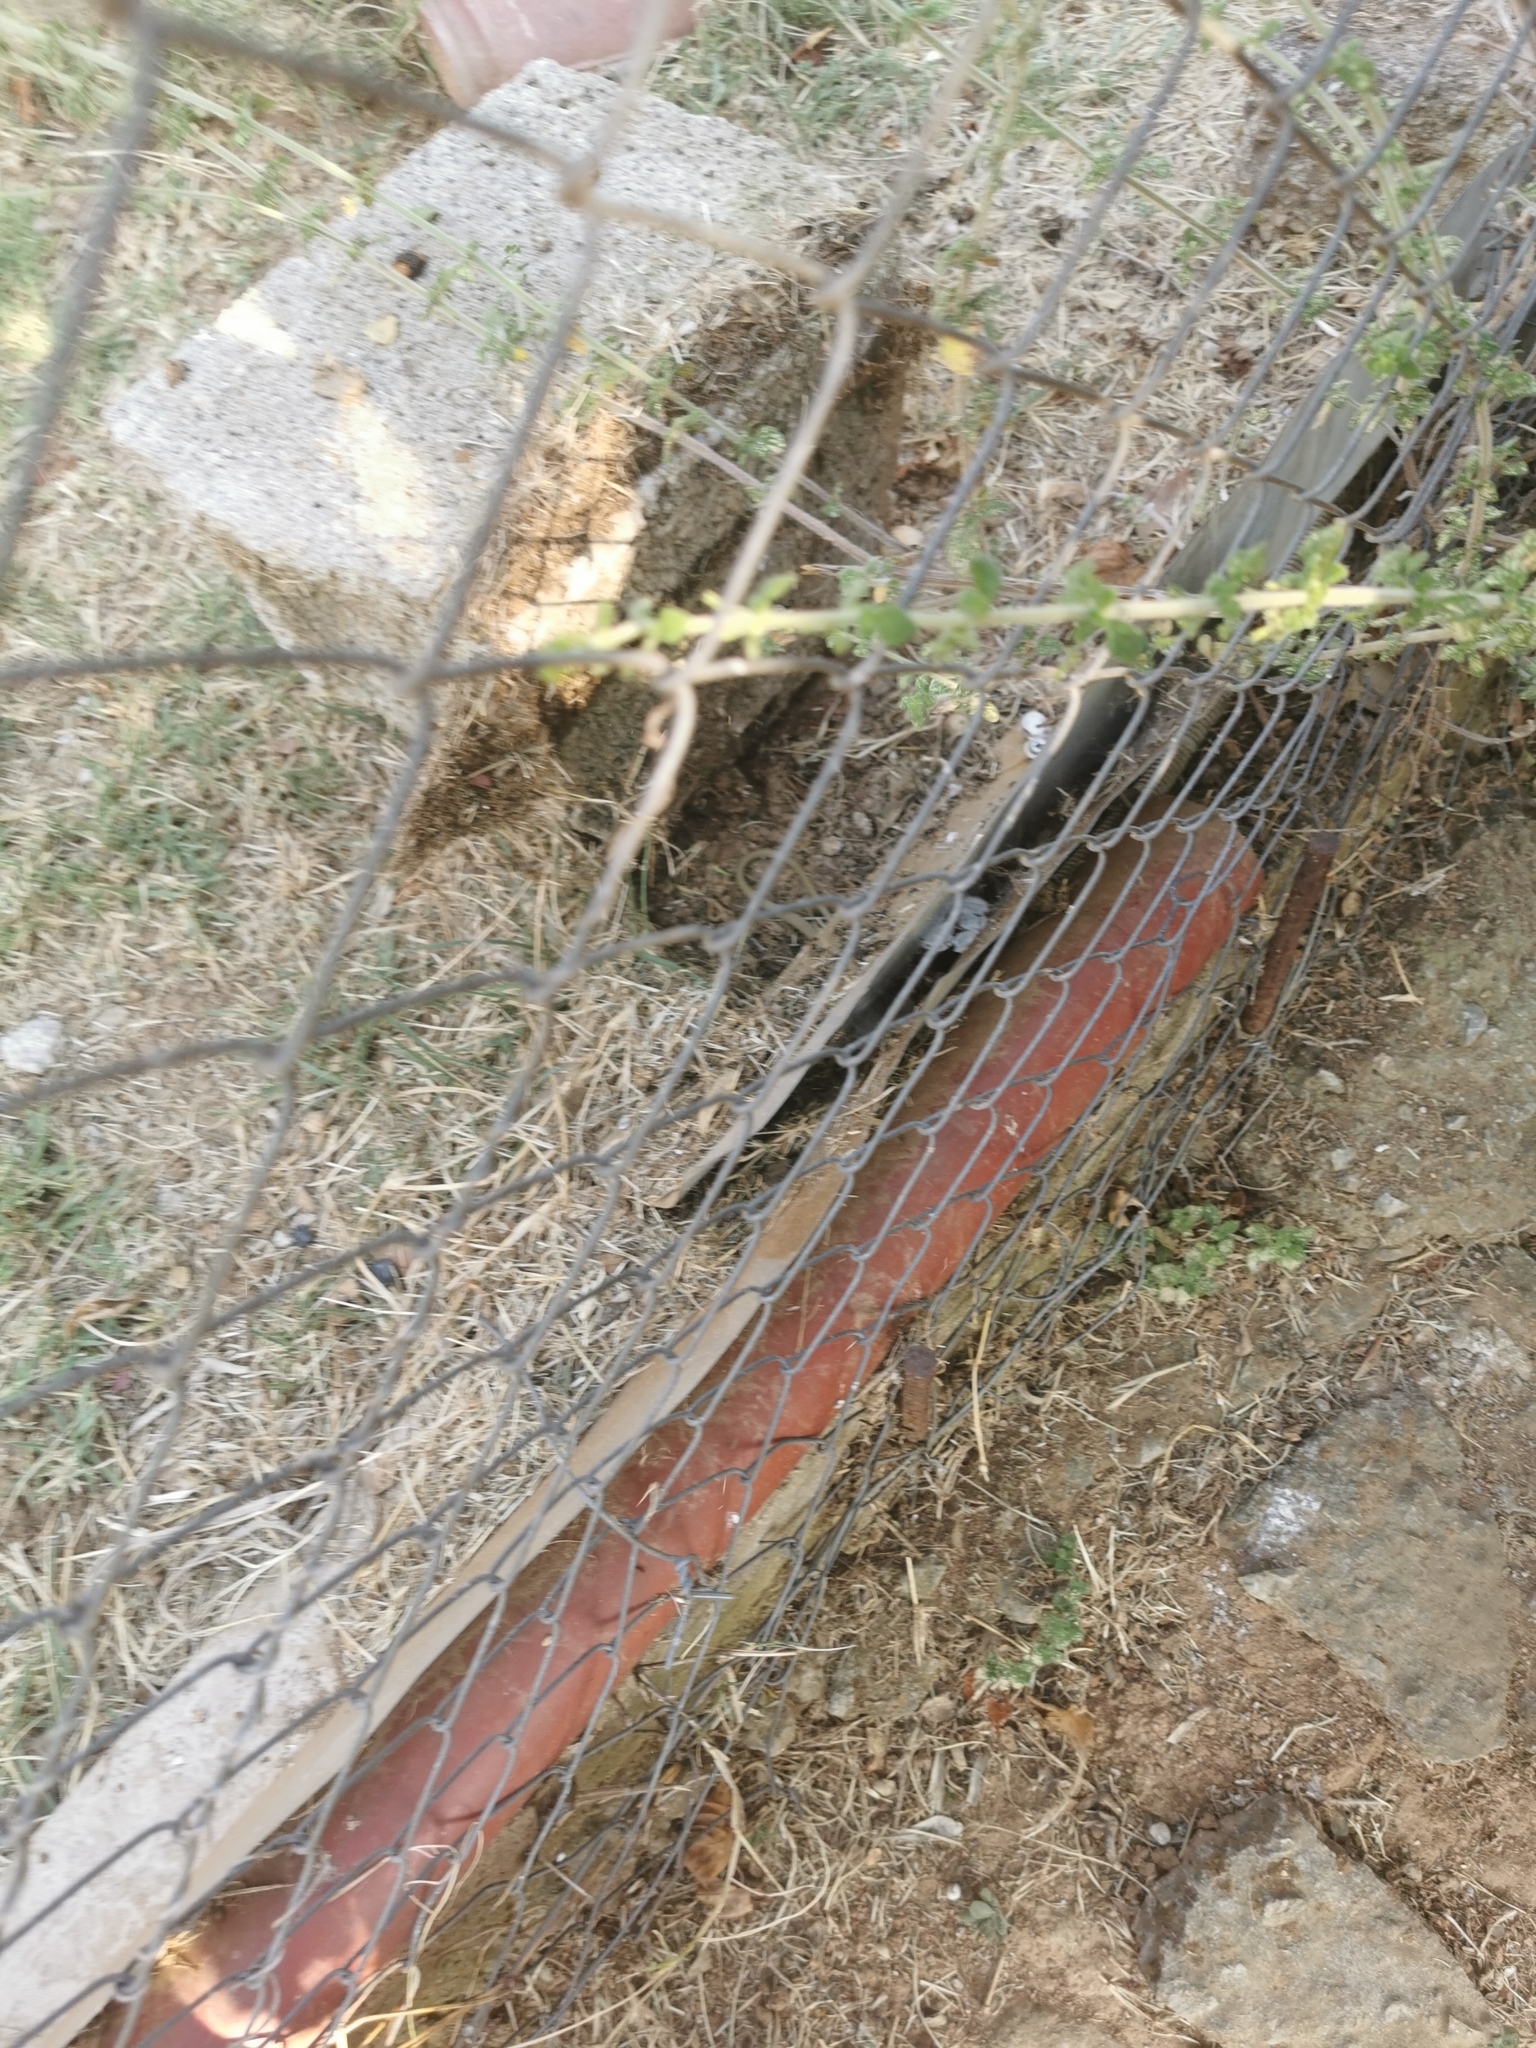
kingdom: Animalia
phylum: Chordata
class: Squamata
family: Colubridae
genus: Platyceps
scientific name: Platyceps najadum
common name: Dahl's whip snake
